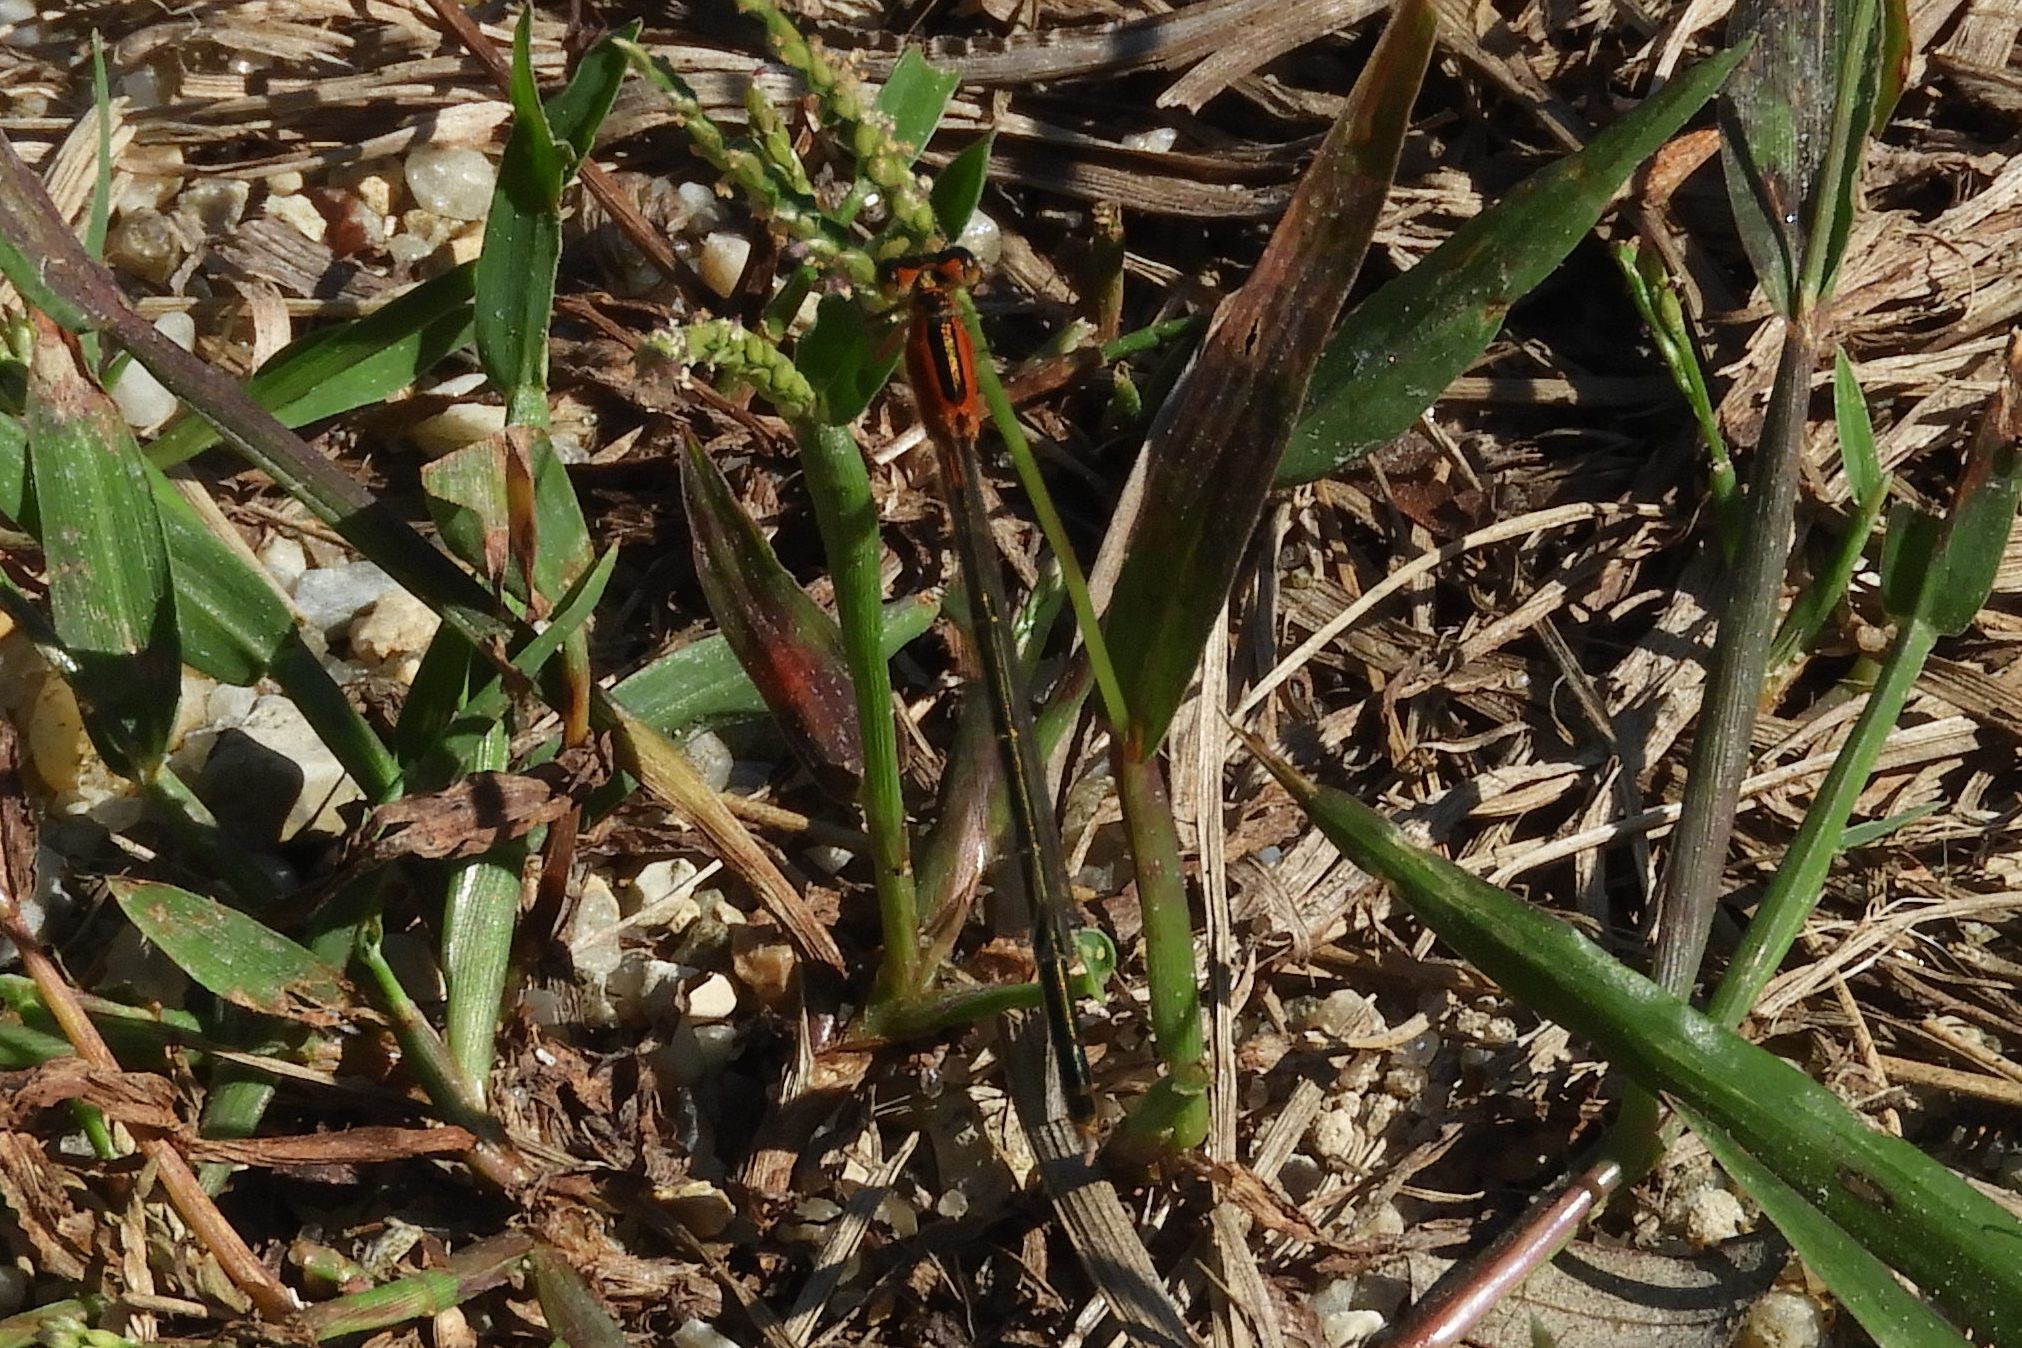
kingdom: Animalia
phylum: Arthropoda
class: Insecta
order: Odonata
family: Coenagrionidae
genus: Ischnura
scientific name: Ischnura ramburii
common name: Rambur's forktail
